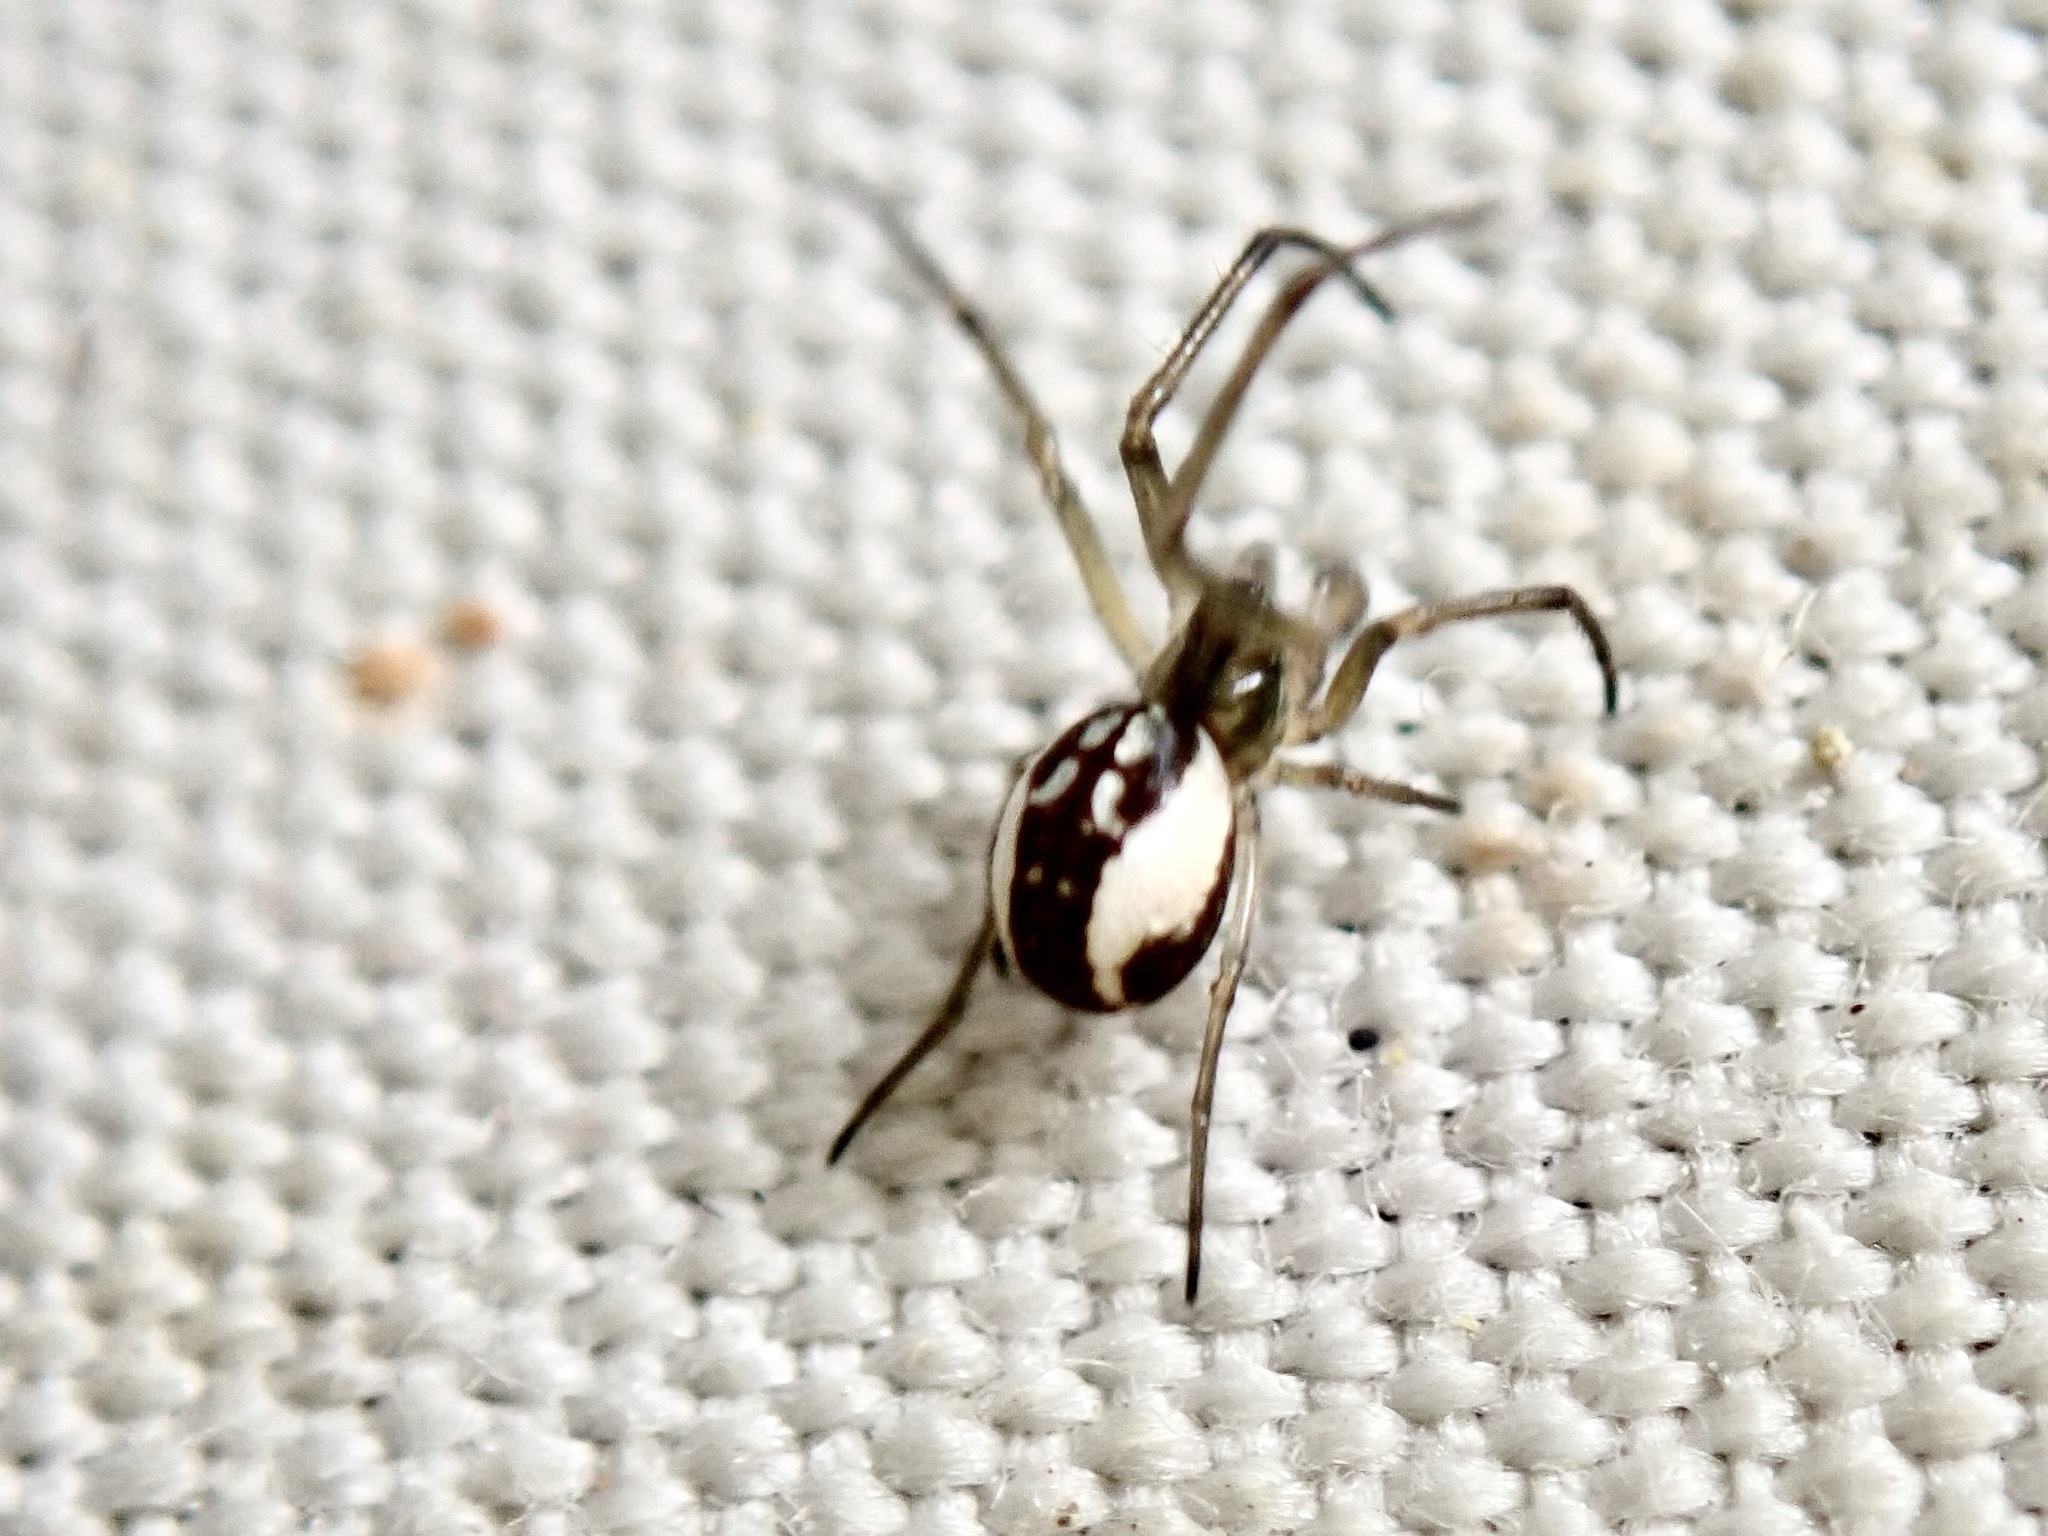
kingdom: Animalia
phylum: Arthropoda
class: Arachnida
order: Araneae
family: Tetragnathidae
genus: Nanometa
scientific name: Nanometa forsteri
